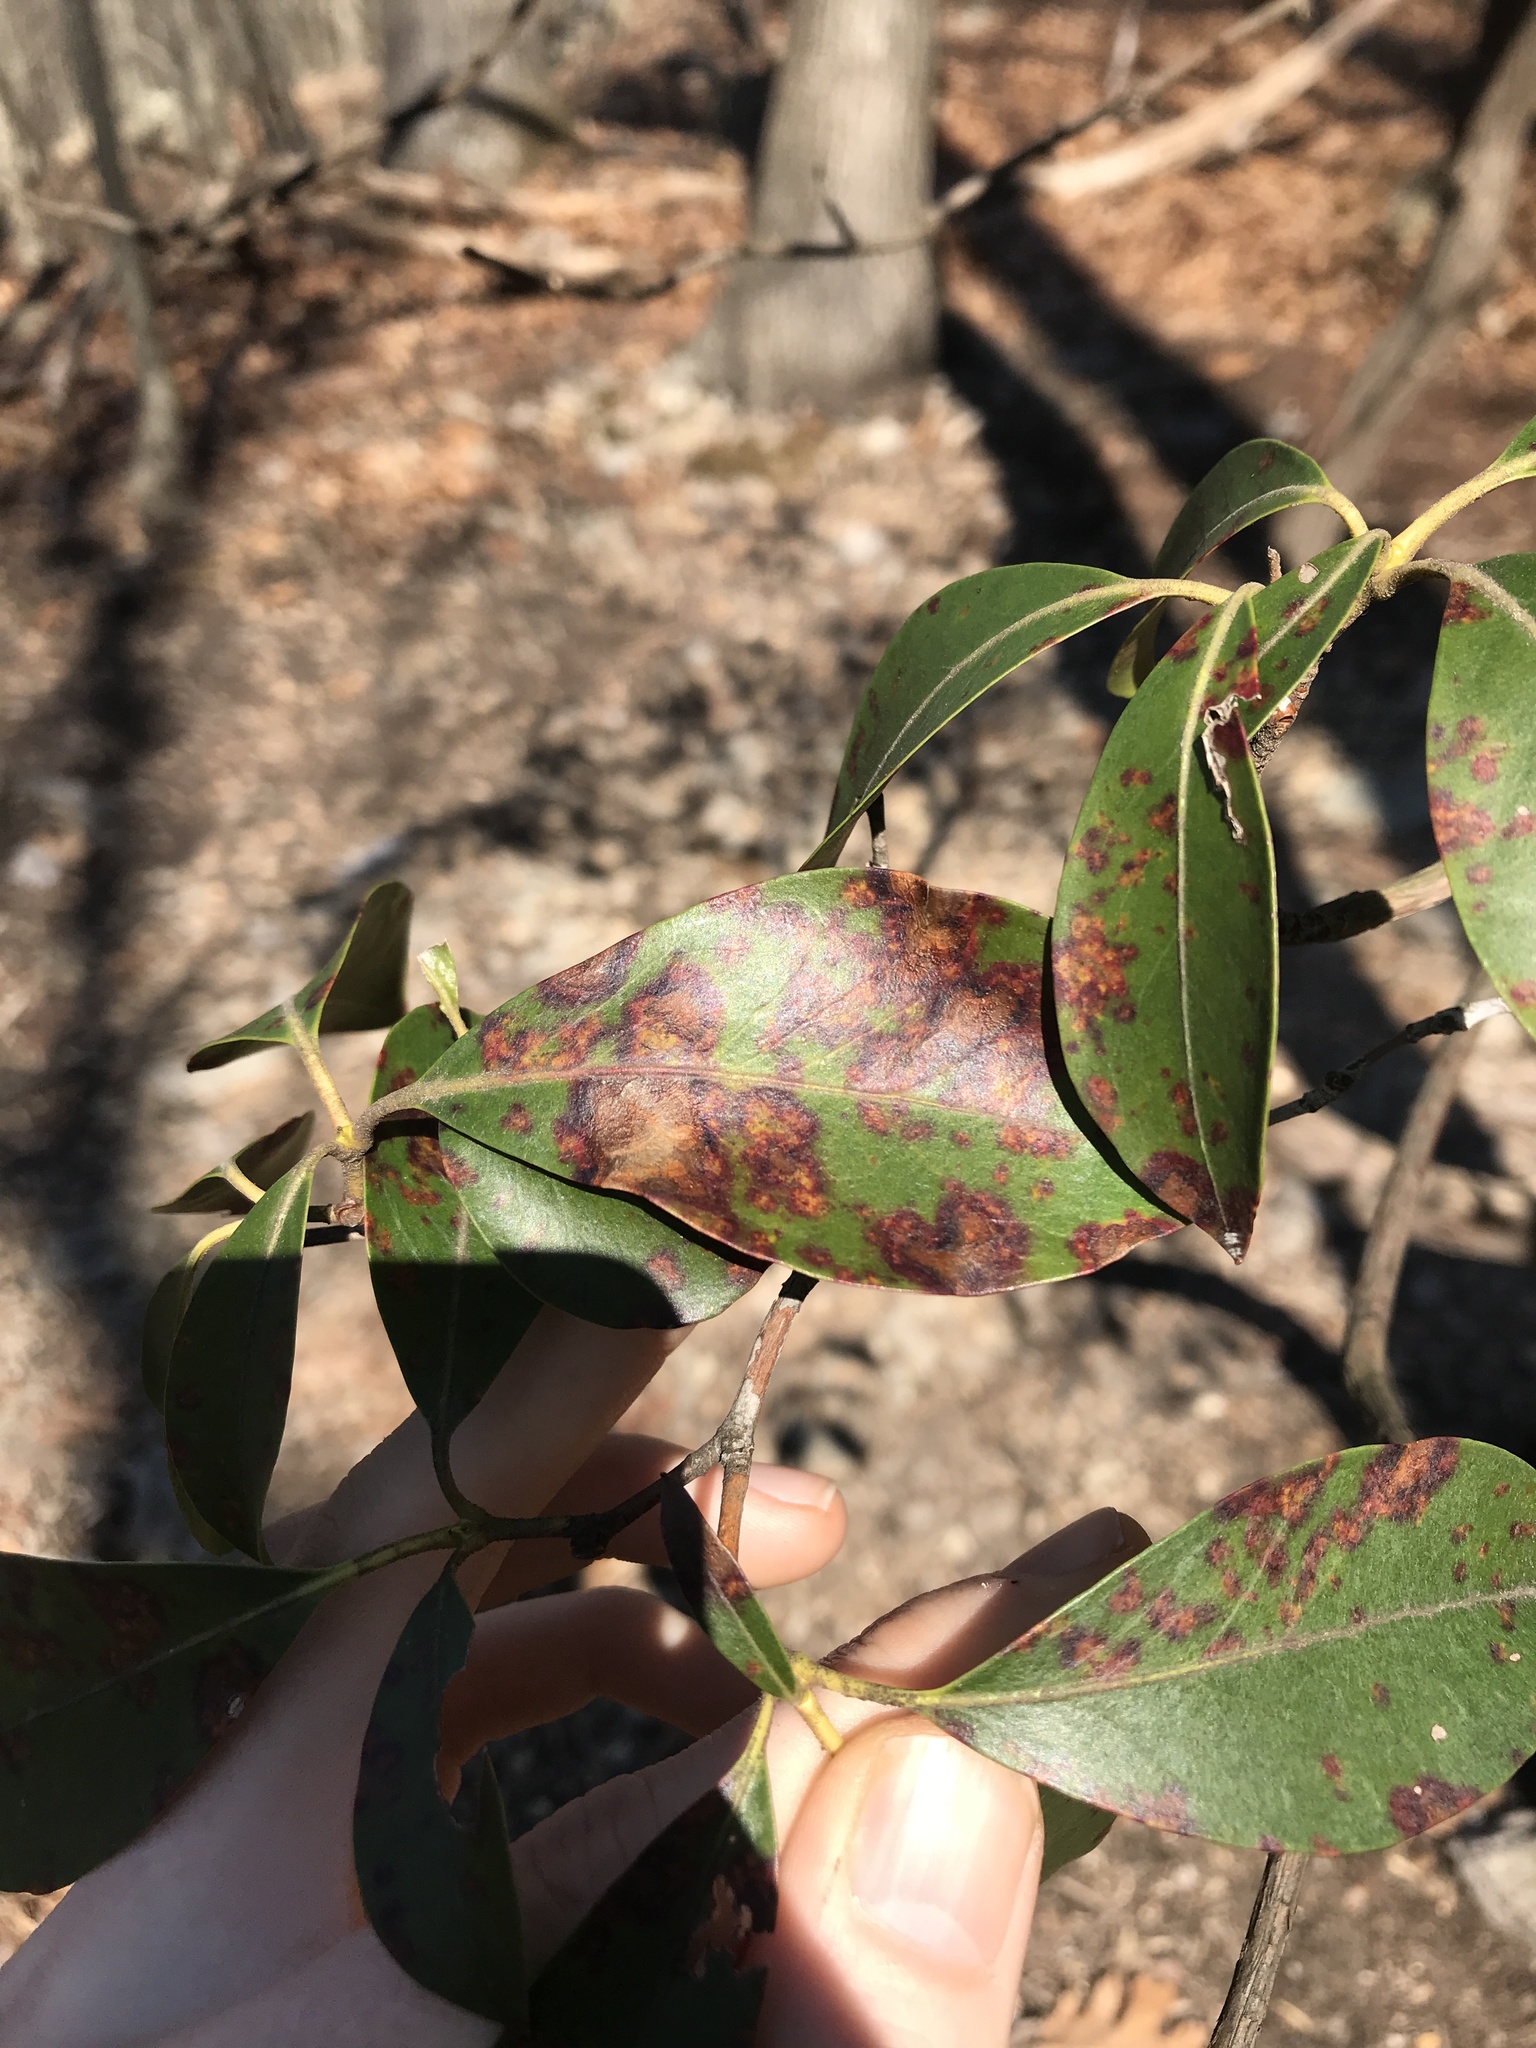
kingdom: Fungi
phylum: Ascomycota
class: Sordariomycetes
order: Diaporthales
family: Diaporthaceae
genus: Diaporthe
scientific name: Diaporthe kalmiae
